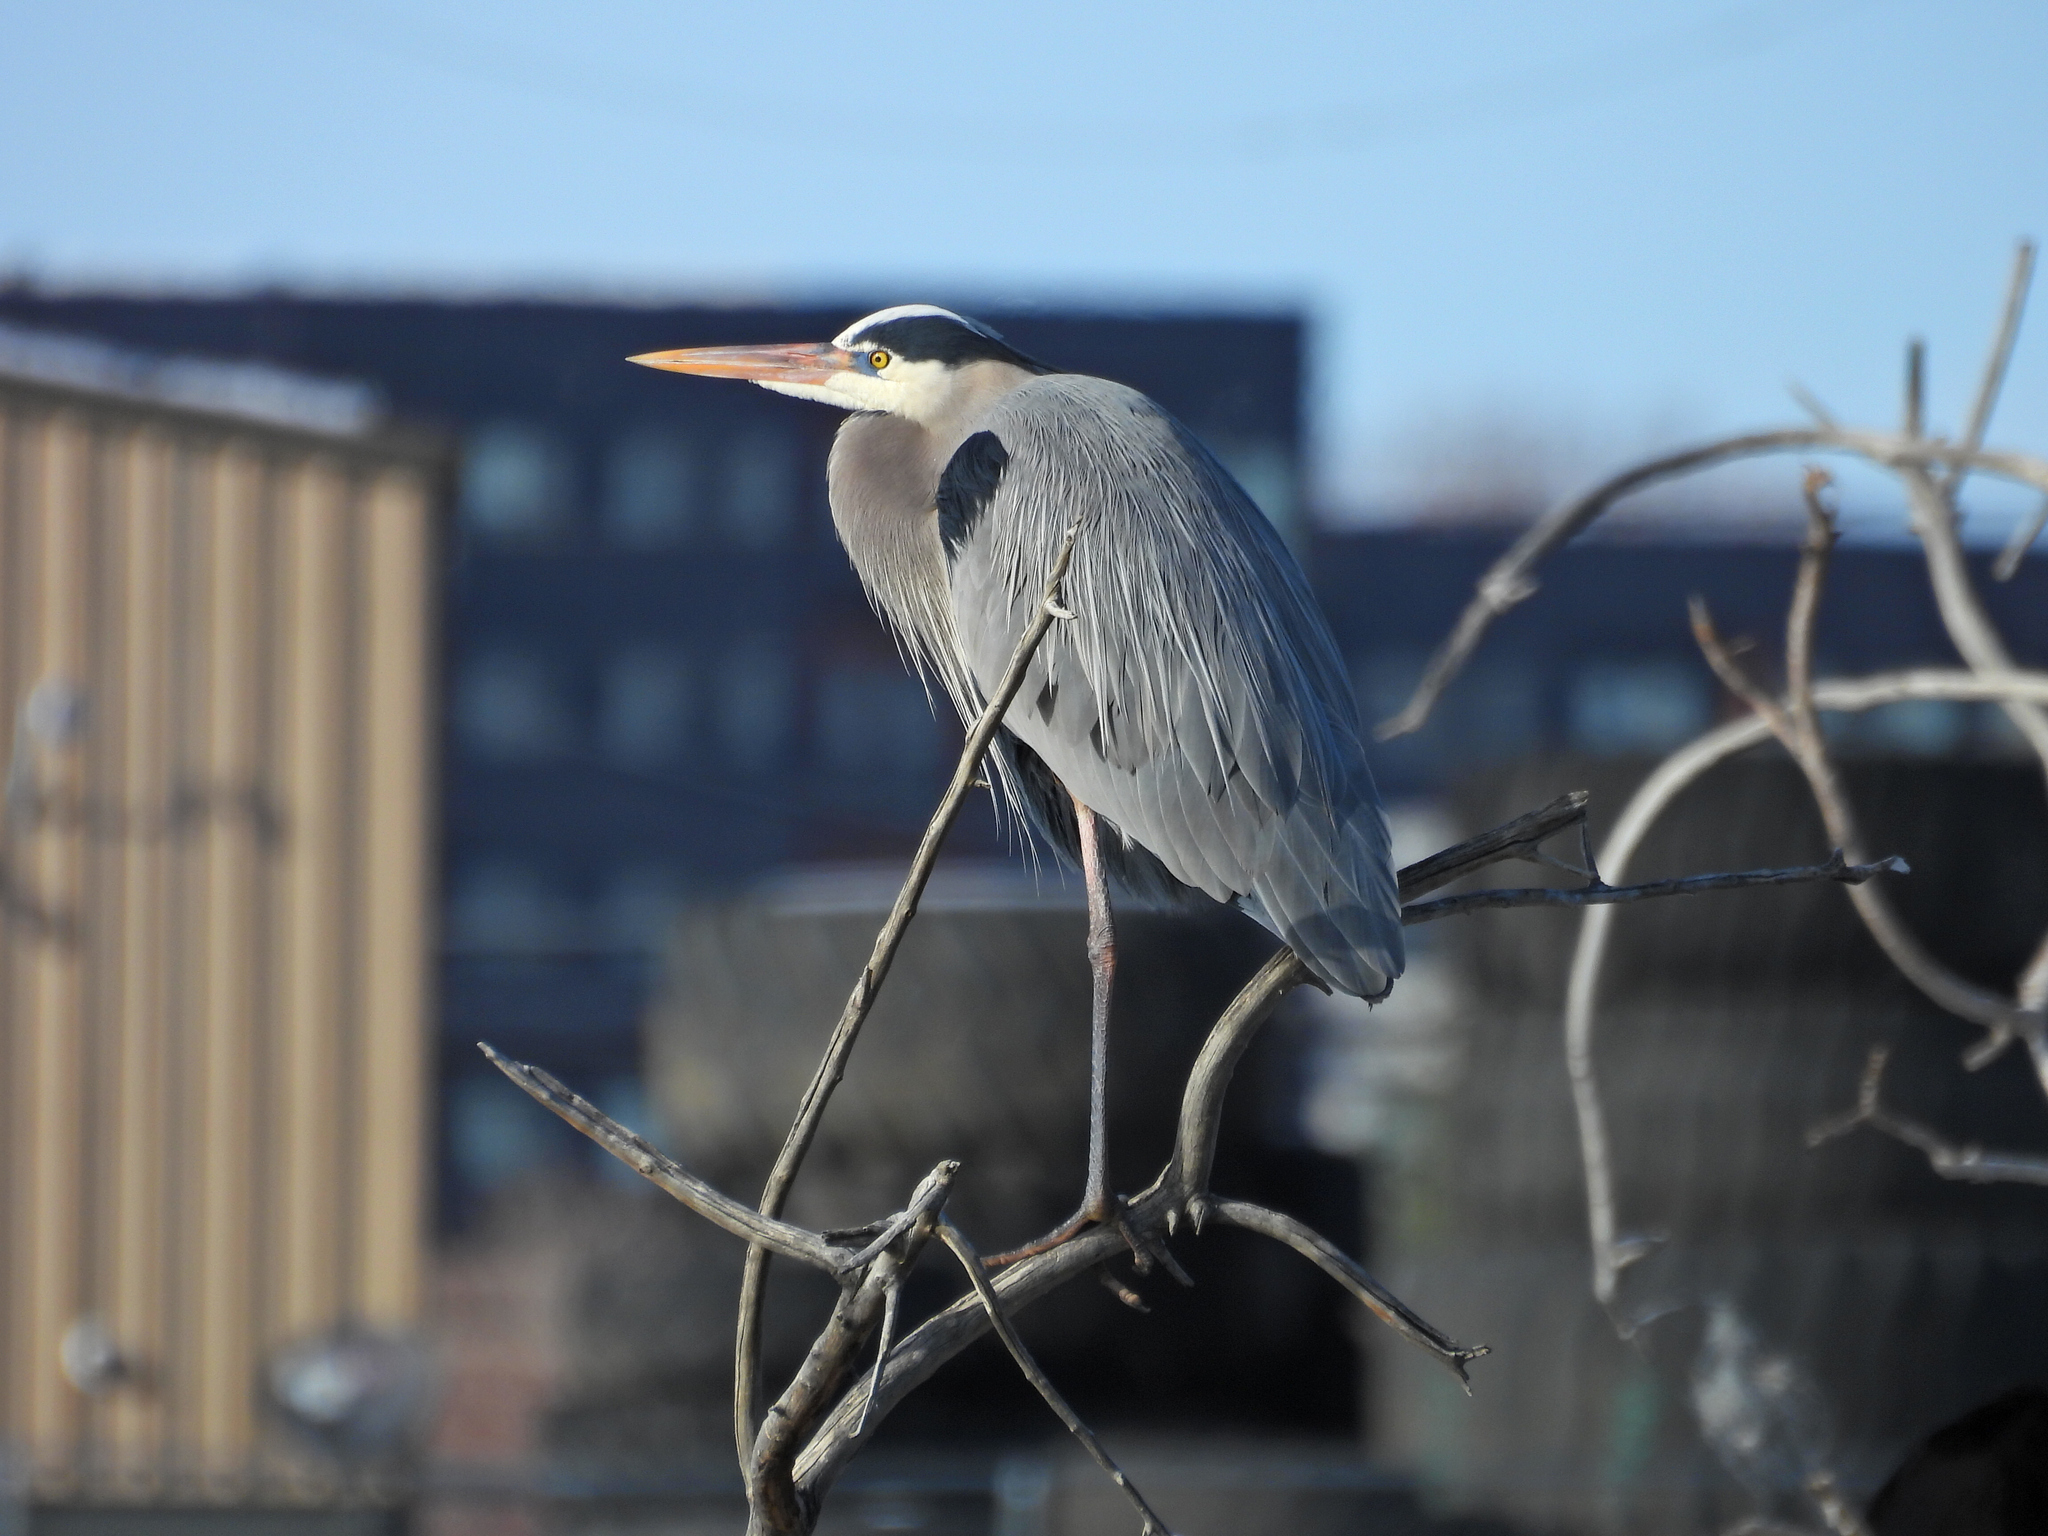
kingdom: Animalia
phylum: Chordata
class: Aves
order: Pelecaniformes
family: Ardeidae
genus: Ardea
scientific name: Ardea herodias
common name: Great blue heron
